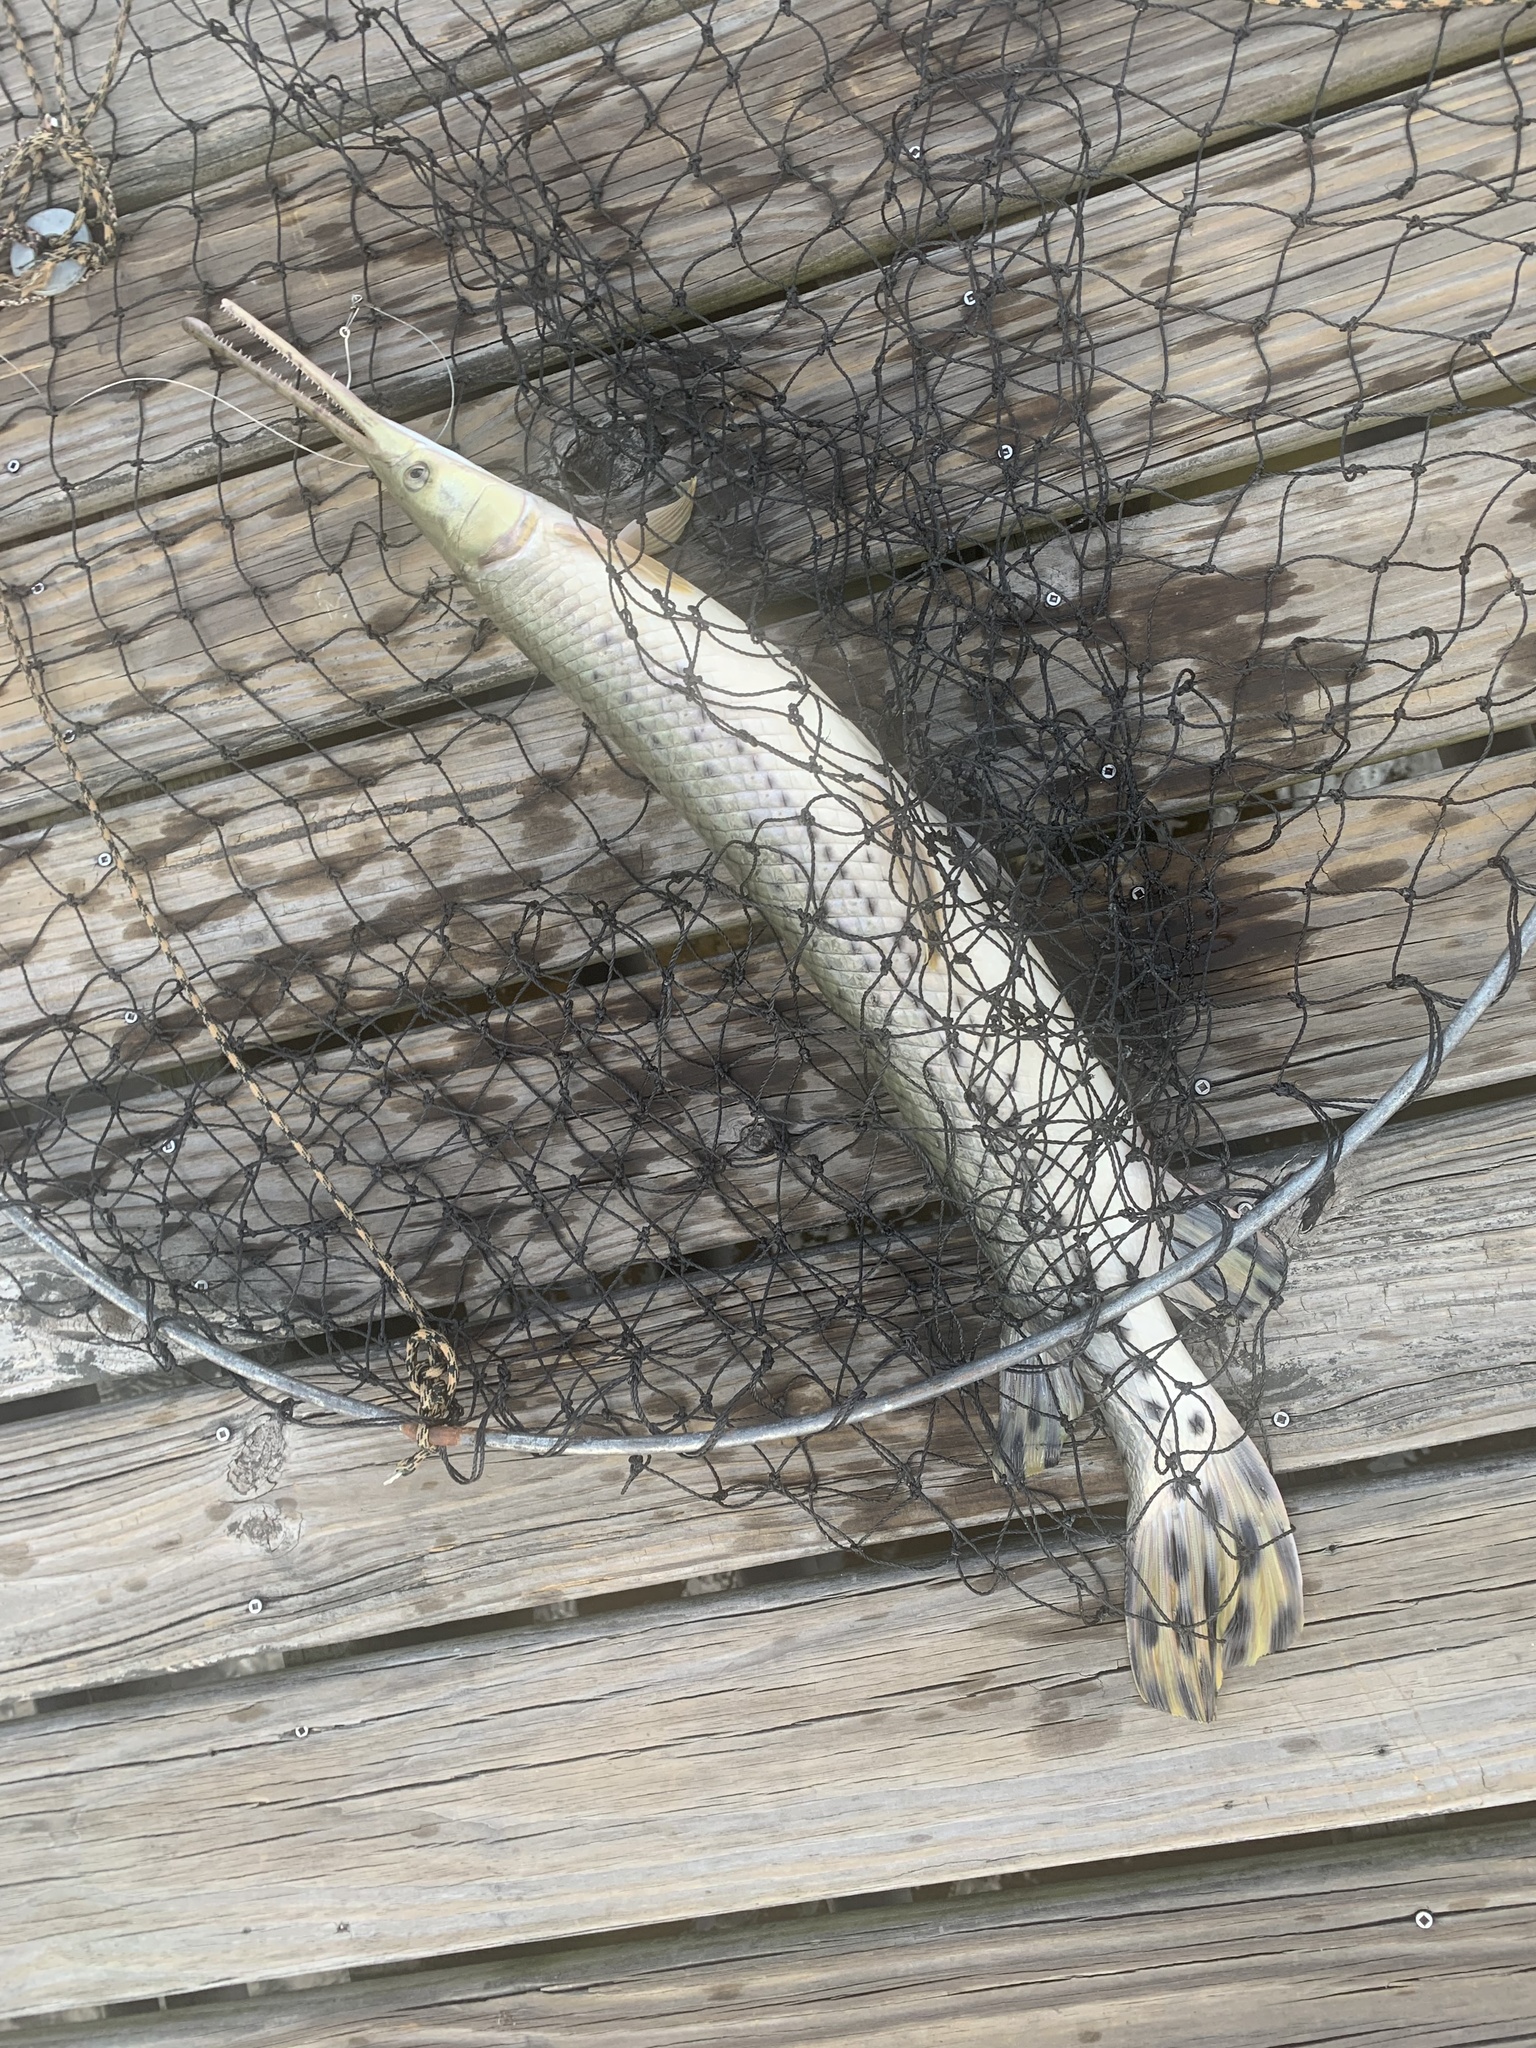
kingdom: Animalia
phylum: Chordata
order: Lepisosteiformes
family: Lepisosteidae
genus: Lepisosteus
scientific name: Lepisosteus osseus
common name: Longnose gar
